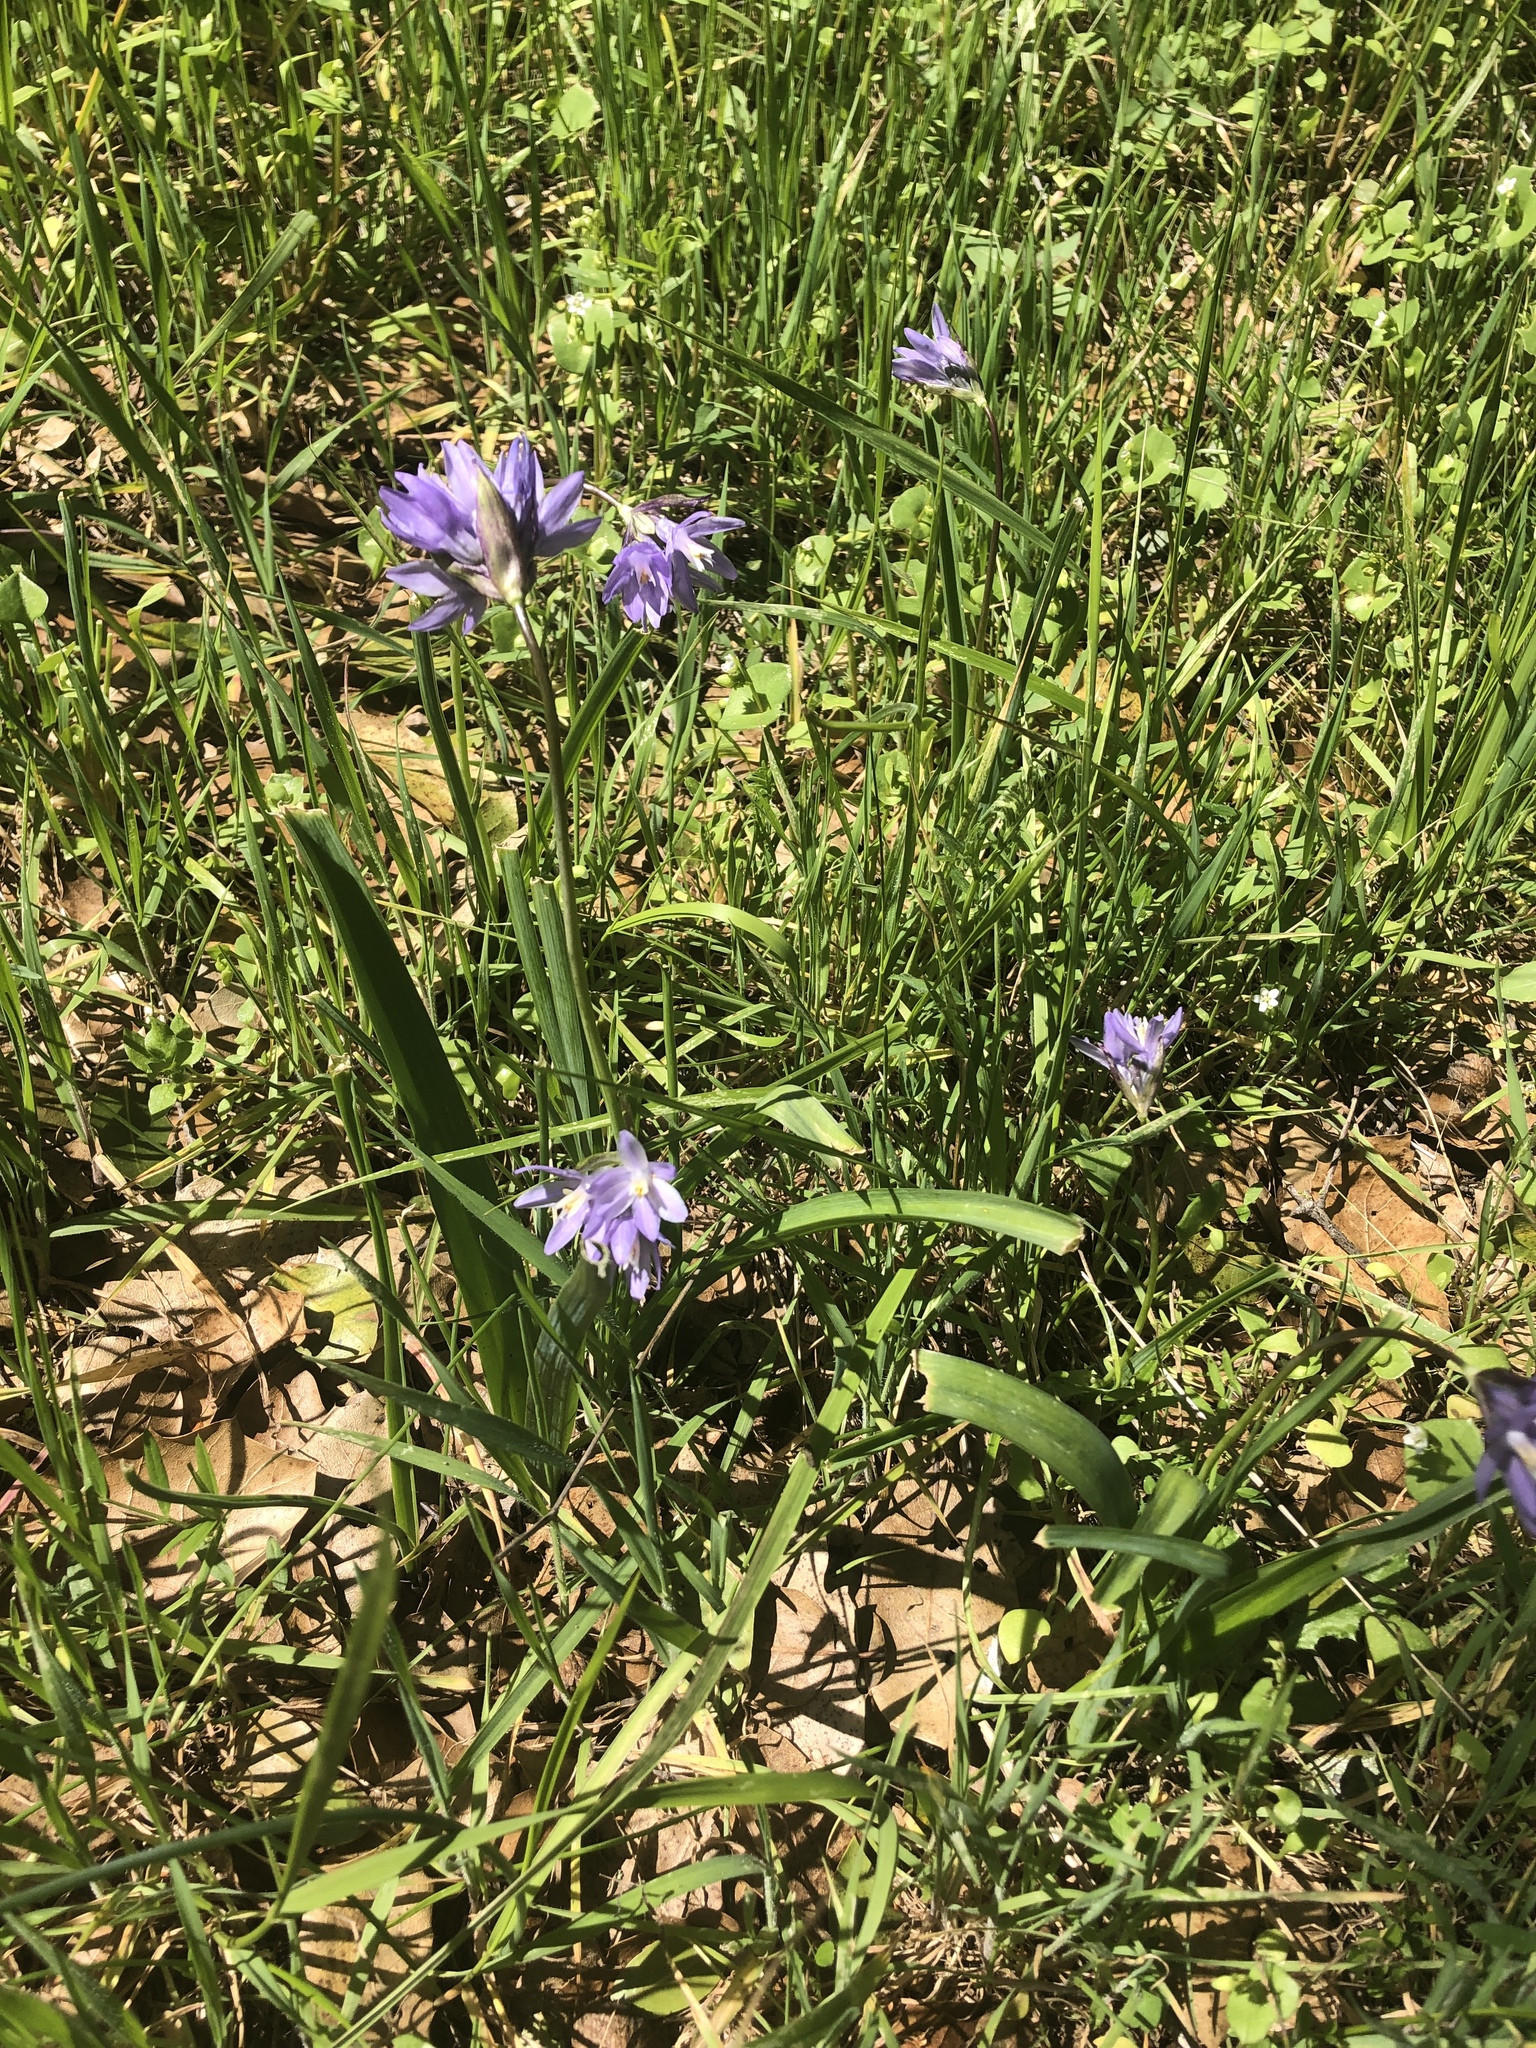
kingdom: Plantae
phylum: Tracheophyta
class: Liliopsida
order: Asparagales
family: Asparagaceae
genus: Dipterostemon
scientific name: Dipterostemon capitatus
